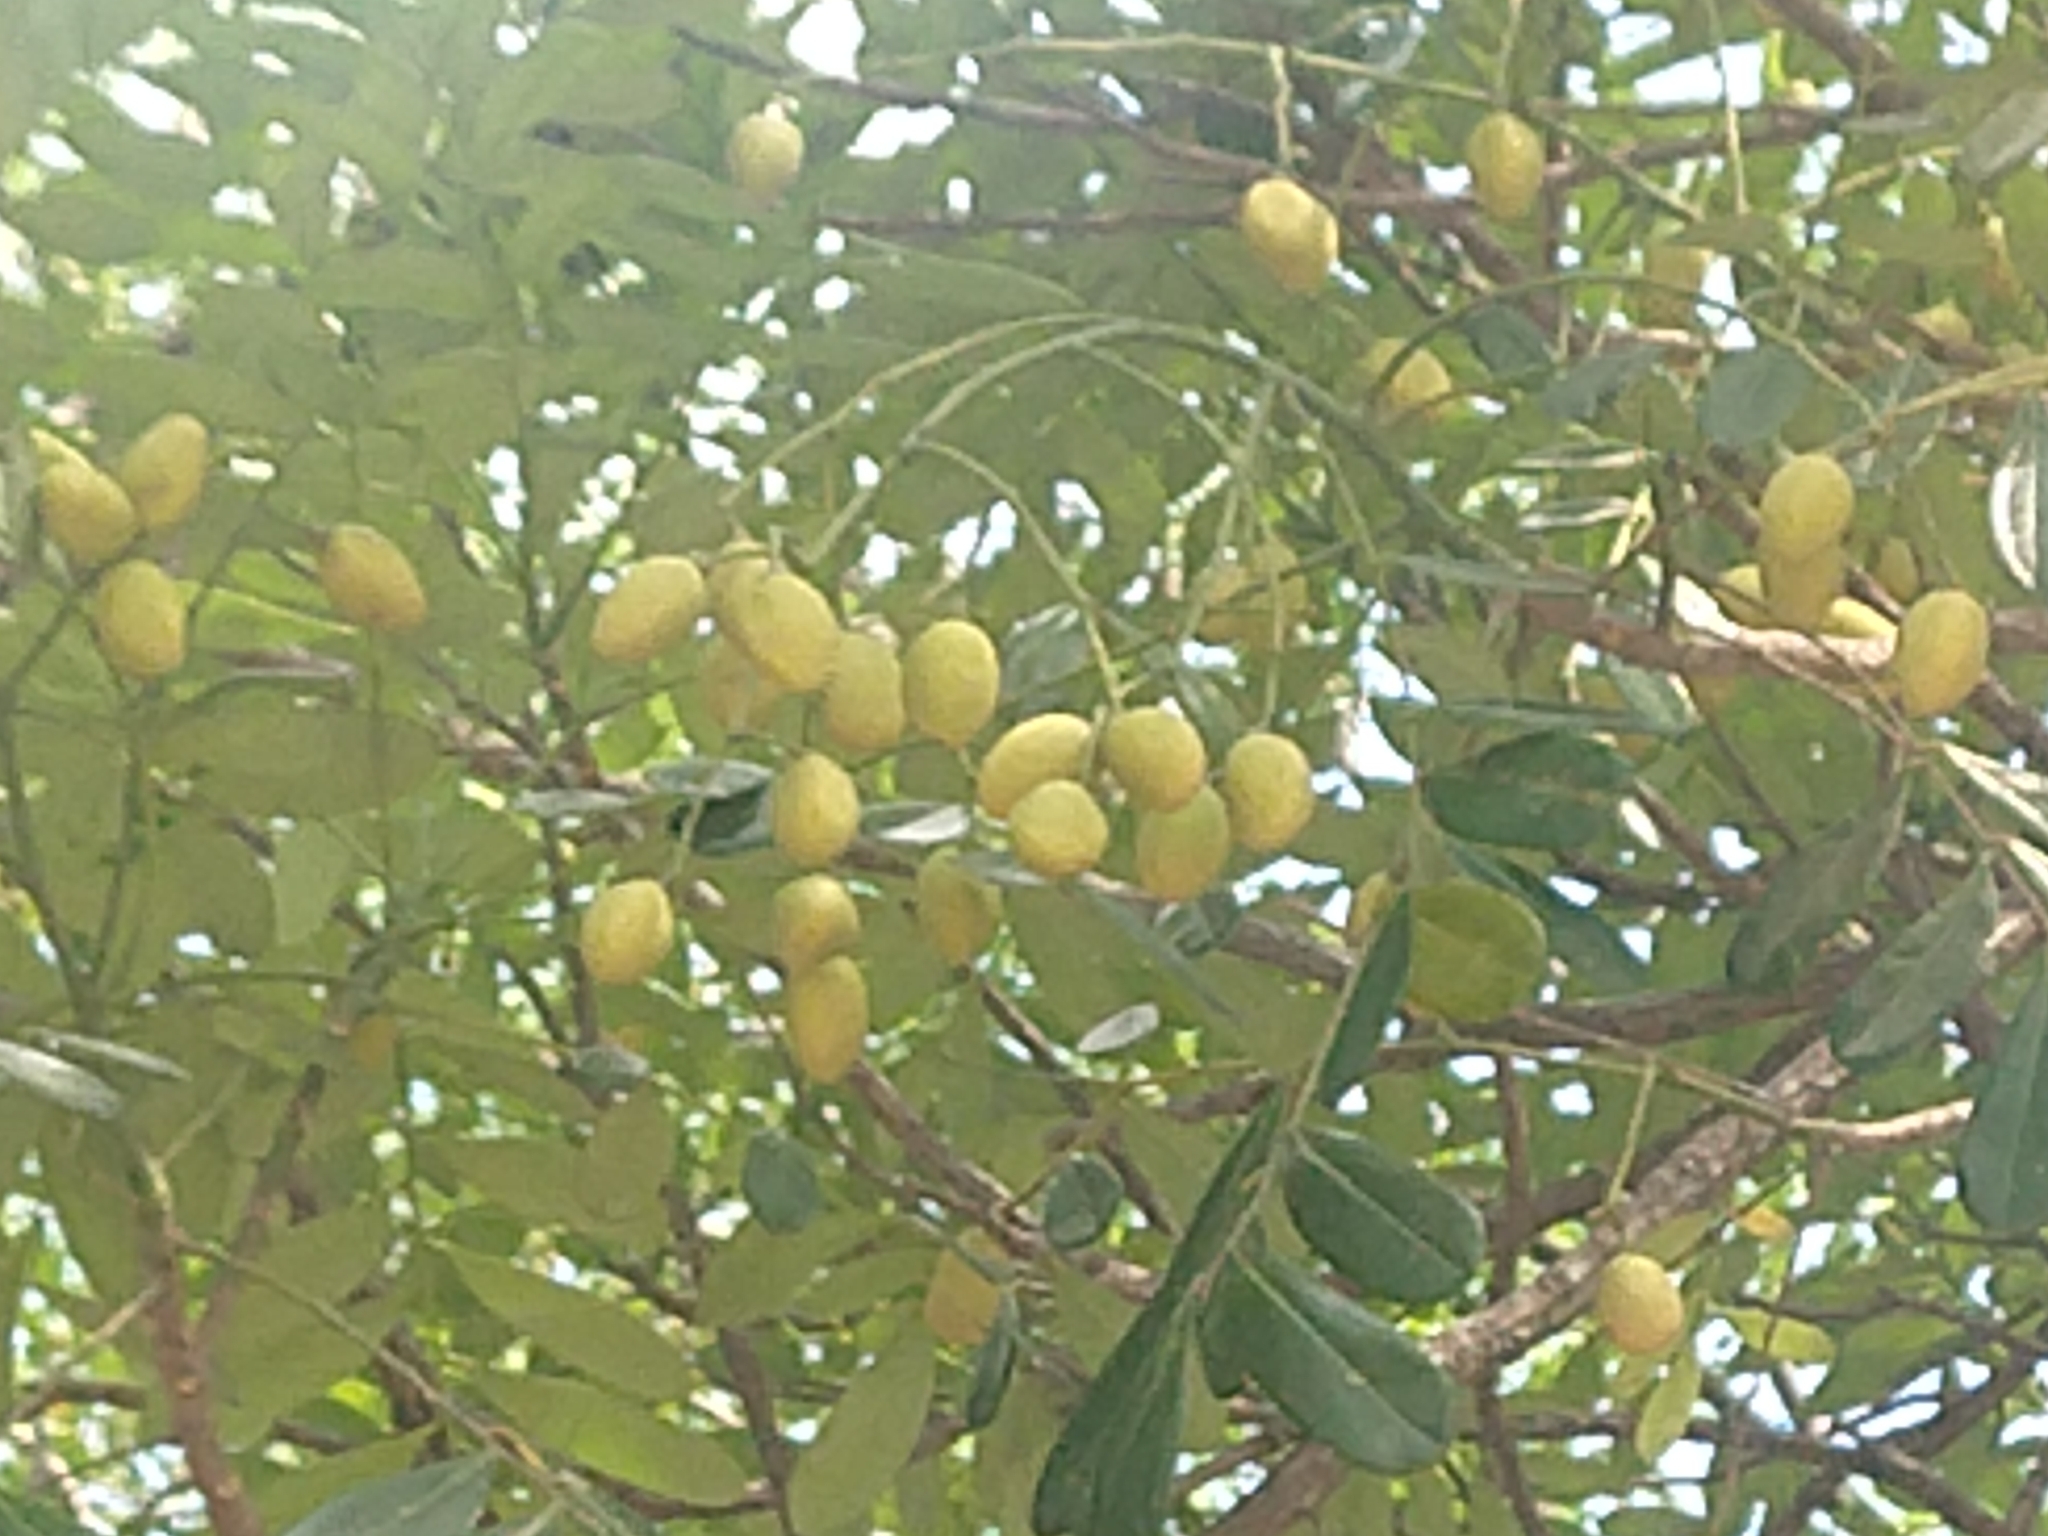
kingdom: Plantae
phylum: Tracheophyta
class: Magnoliopsida
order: Sapindales
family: Simaroubaceae
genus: Simarouba
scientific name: Simarouba amara
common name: Bitterwood
